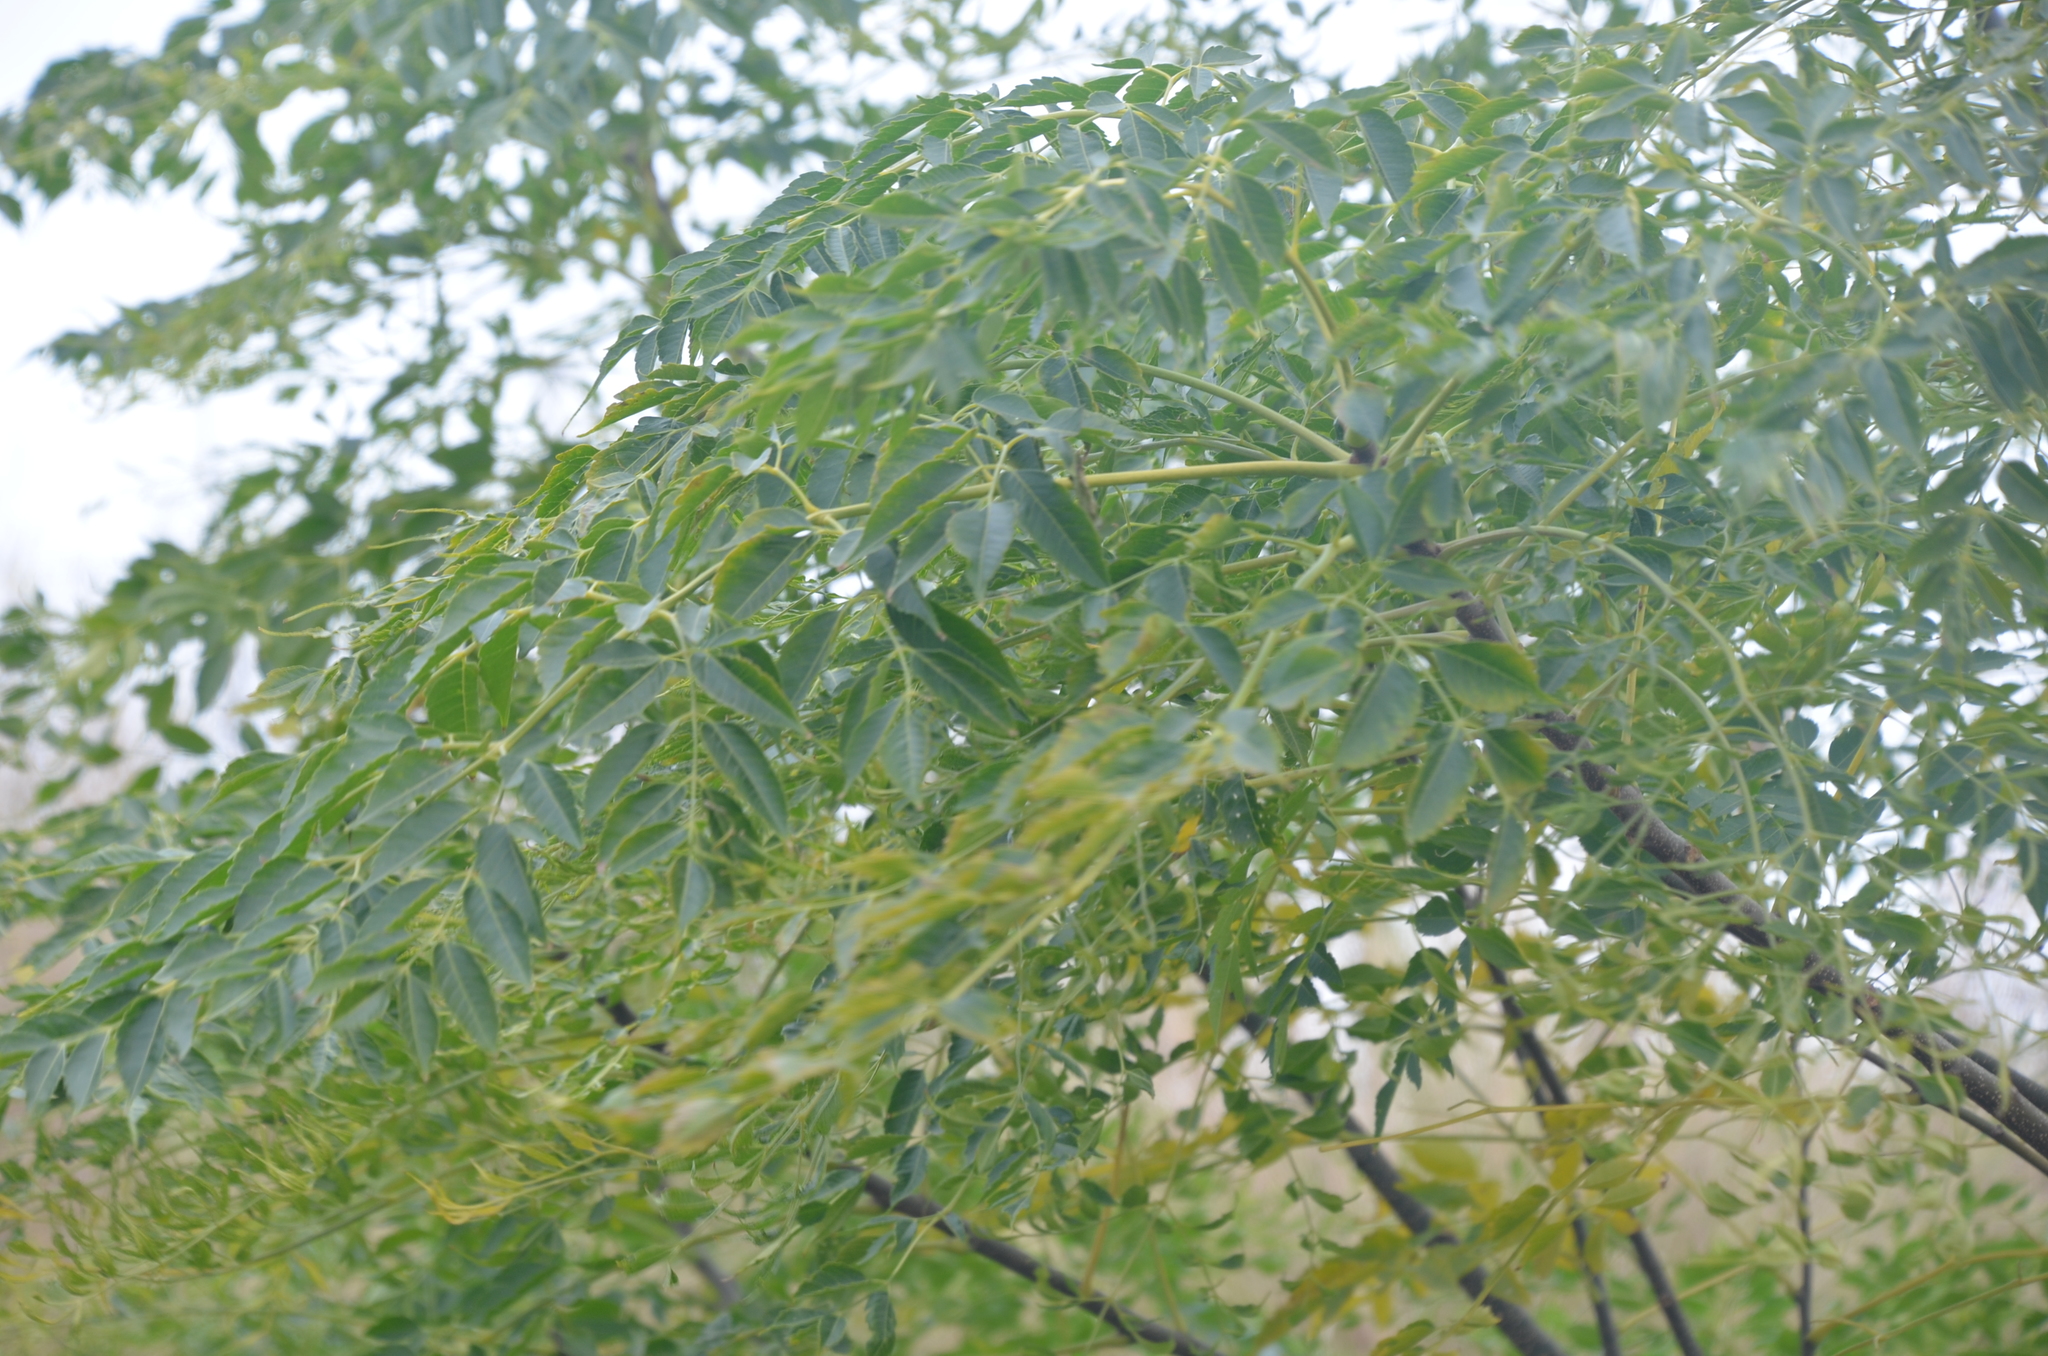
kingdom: Plantae
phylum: Tracheophyta
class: Magnoliopsida
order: Sapindales
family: Meliaceae
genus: Melia
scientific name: Melia azedarach
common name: Chinaberrytree
